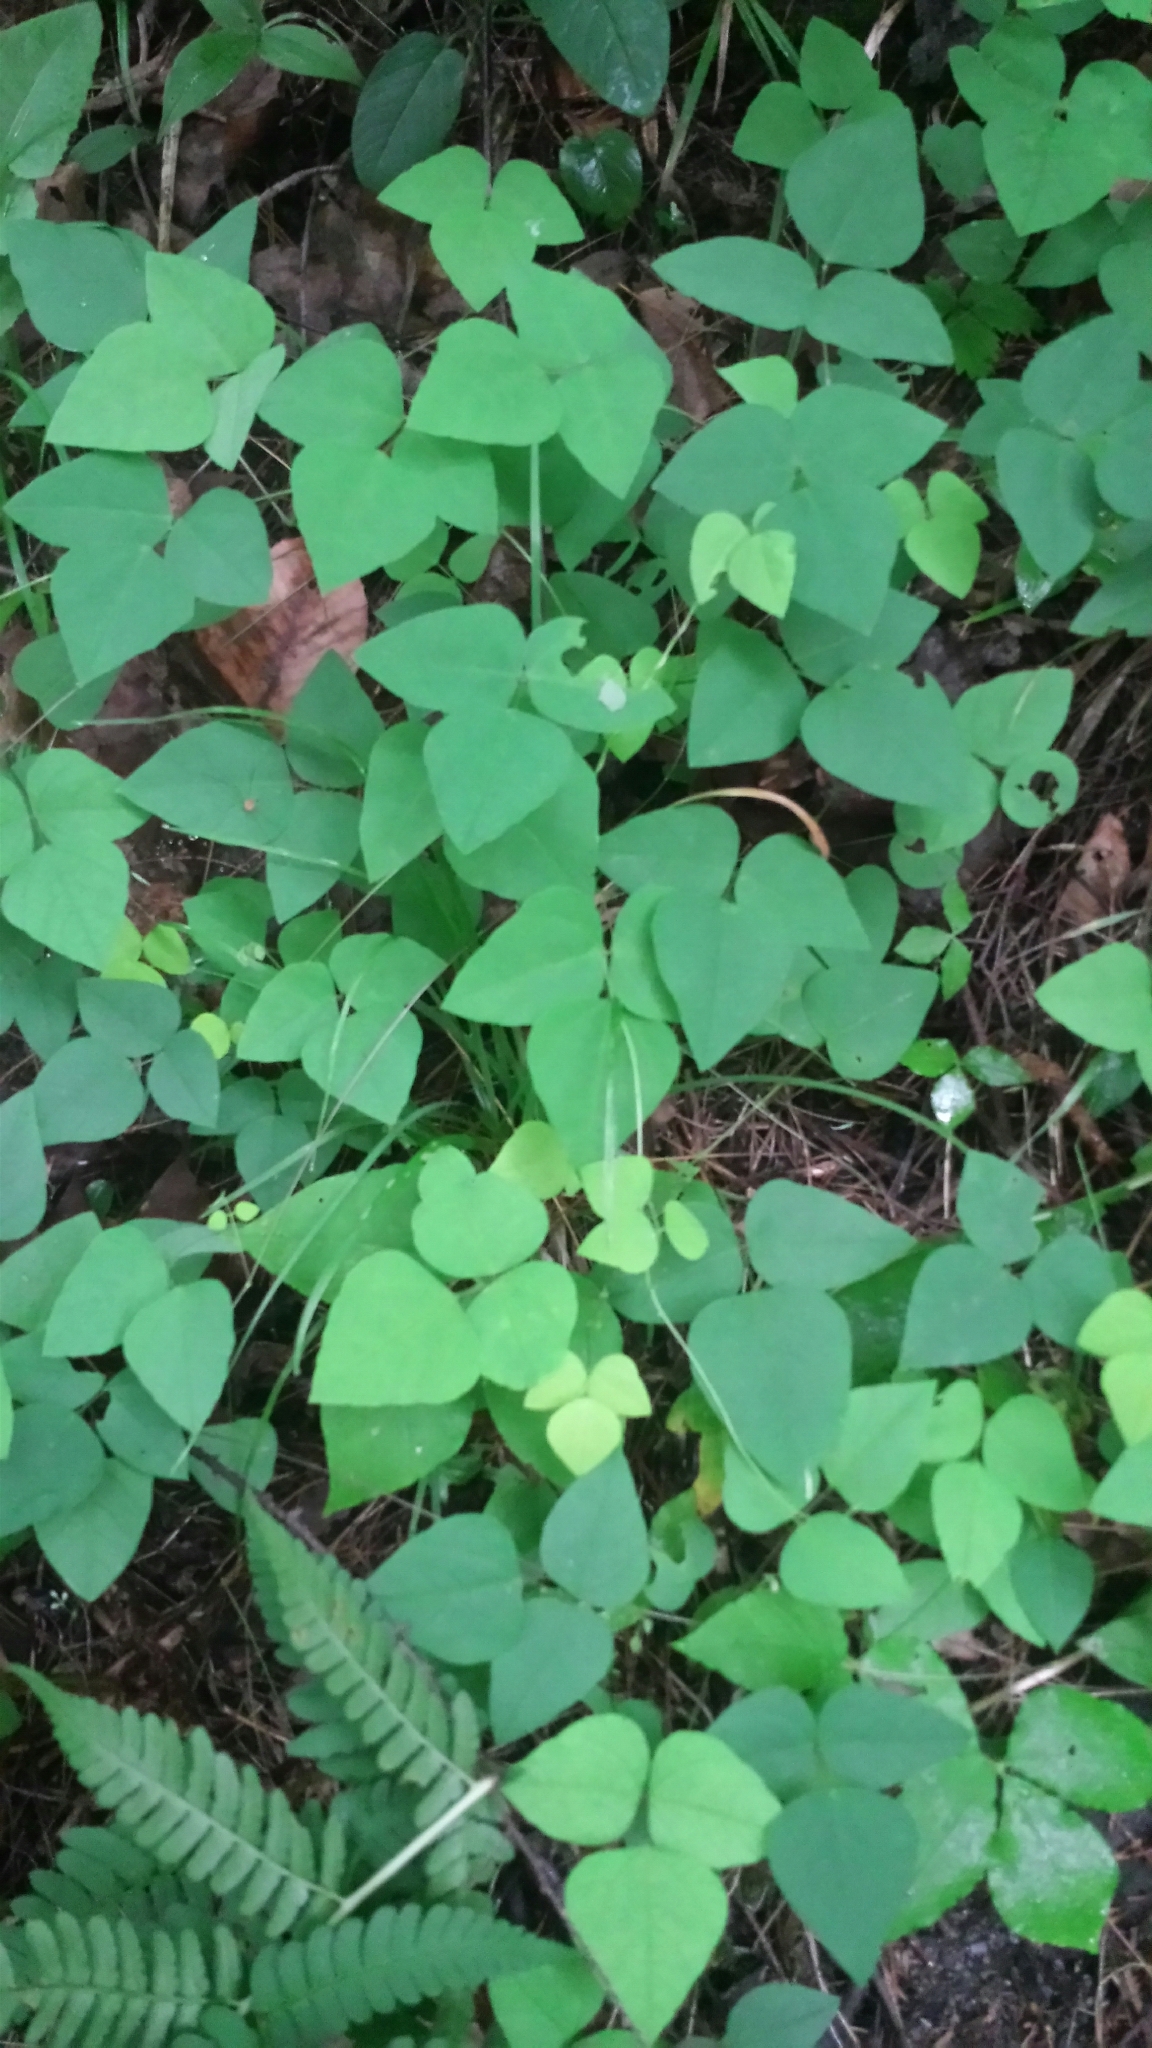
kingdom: Plantae
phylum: Tracheophyta
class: Magnoliopsida
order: Fabales
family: Fabaceae
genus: Amphicarpaea
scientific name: Amphicarpaea bracteata
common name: American hog peanut
